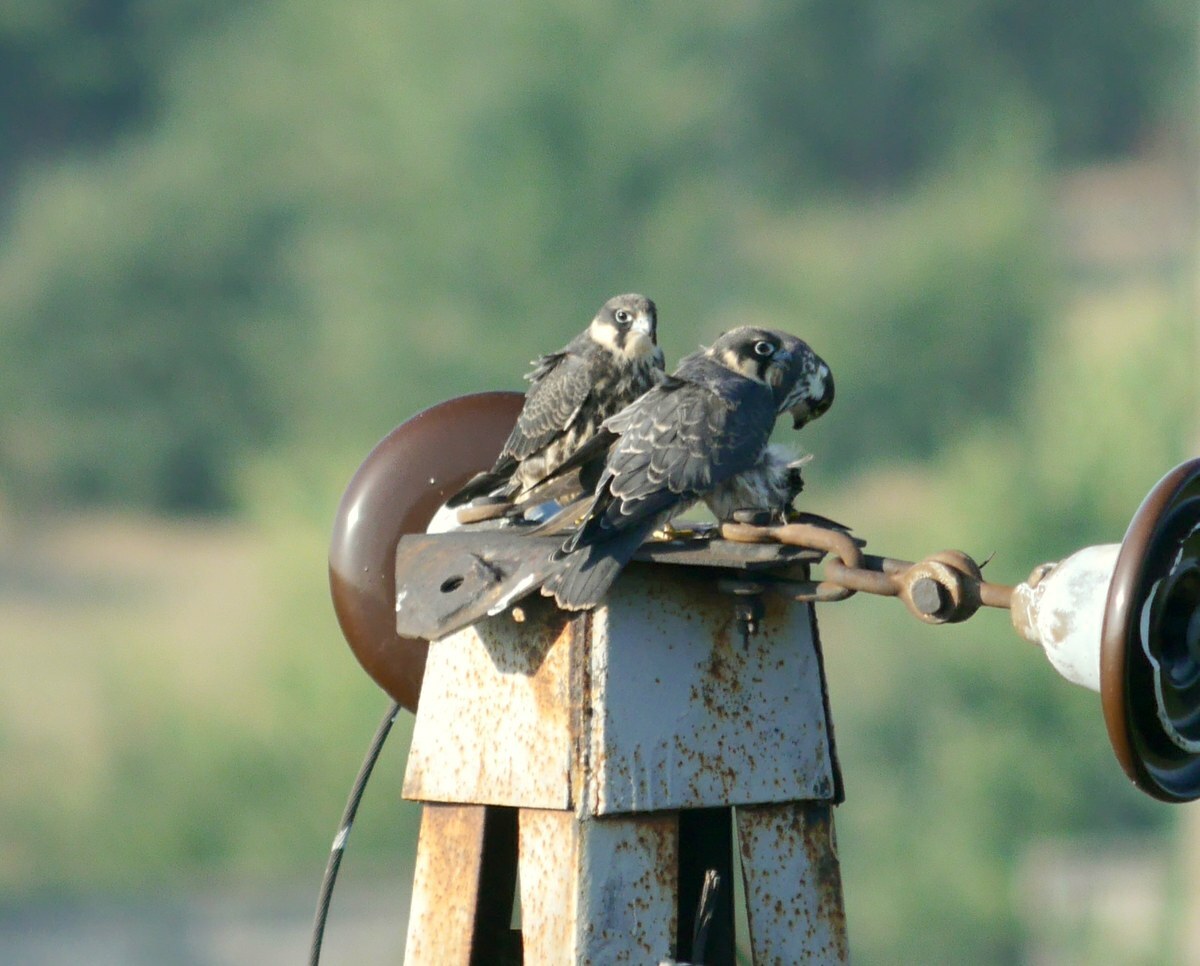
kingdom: Animalia
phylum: Chordata
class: Aves
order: Falconiformes
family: Falconidae
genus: Falco
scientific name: Falco subbuteo
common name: Eurasian hobby
